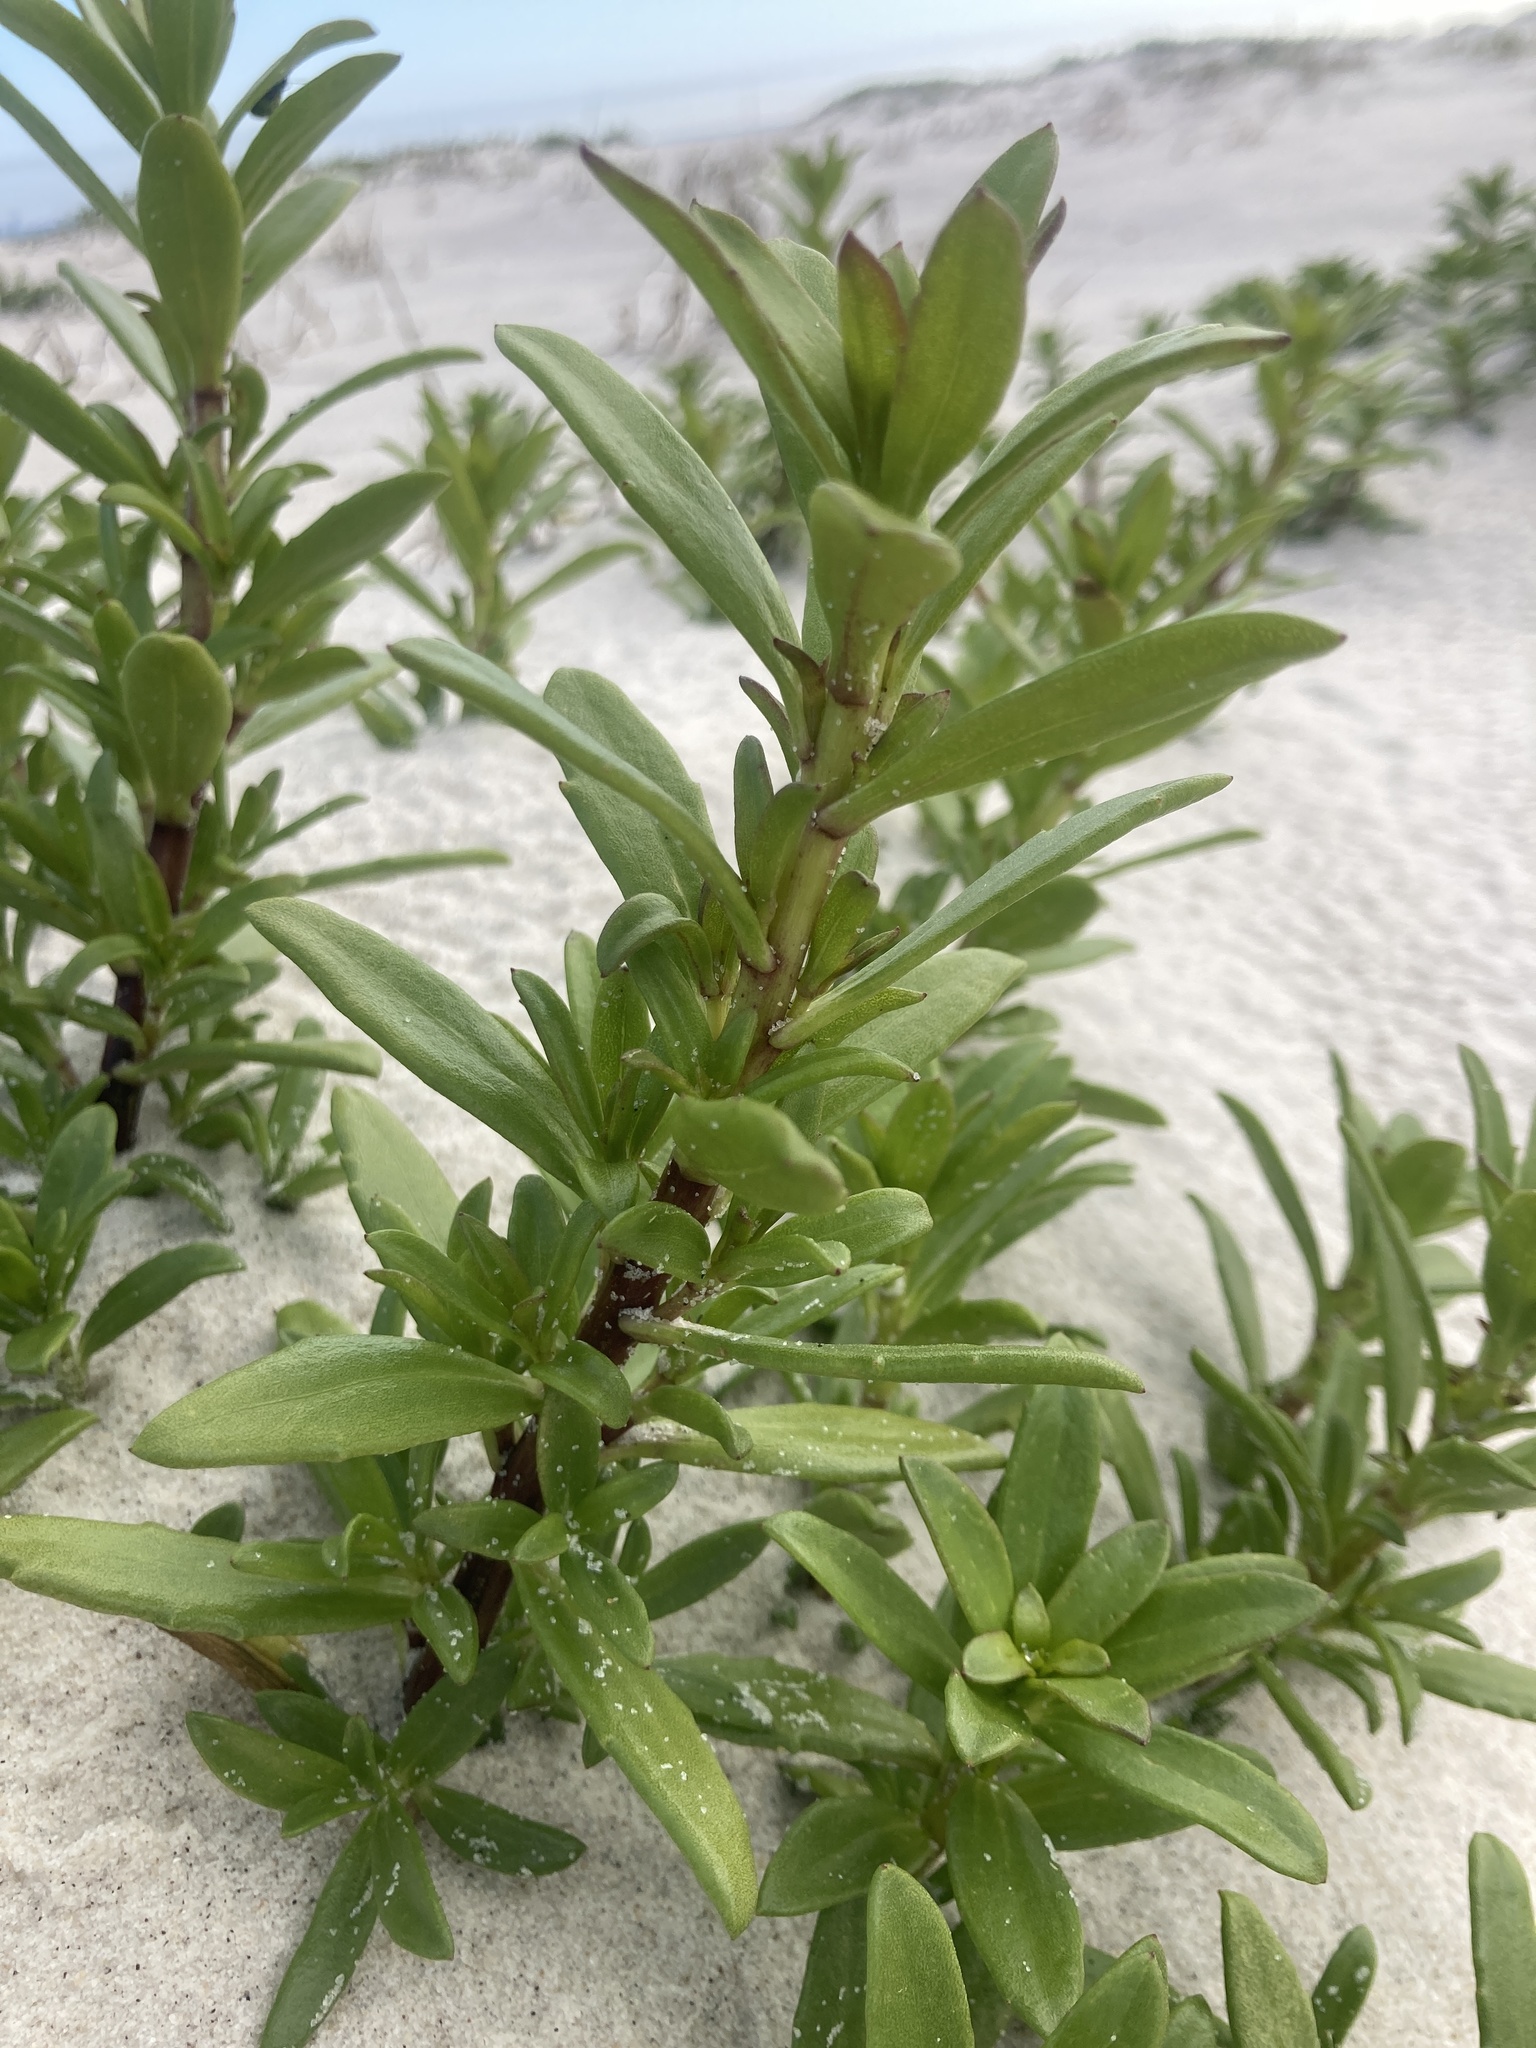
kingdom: Plantae
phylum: Tracheophyta
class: Magnoliopsida
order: Asterales
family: Asteraceae
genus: Iva
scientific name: Iva imbricata
